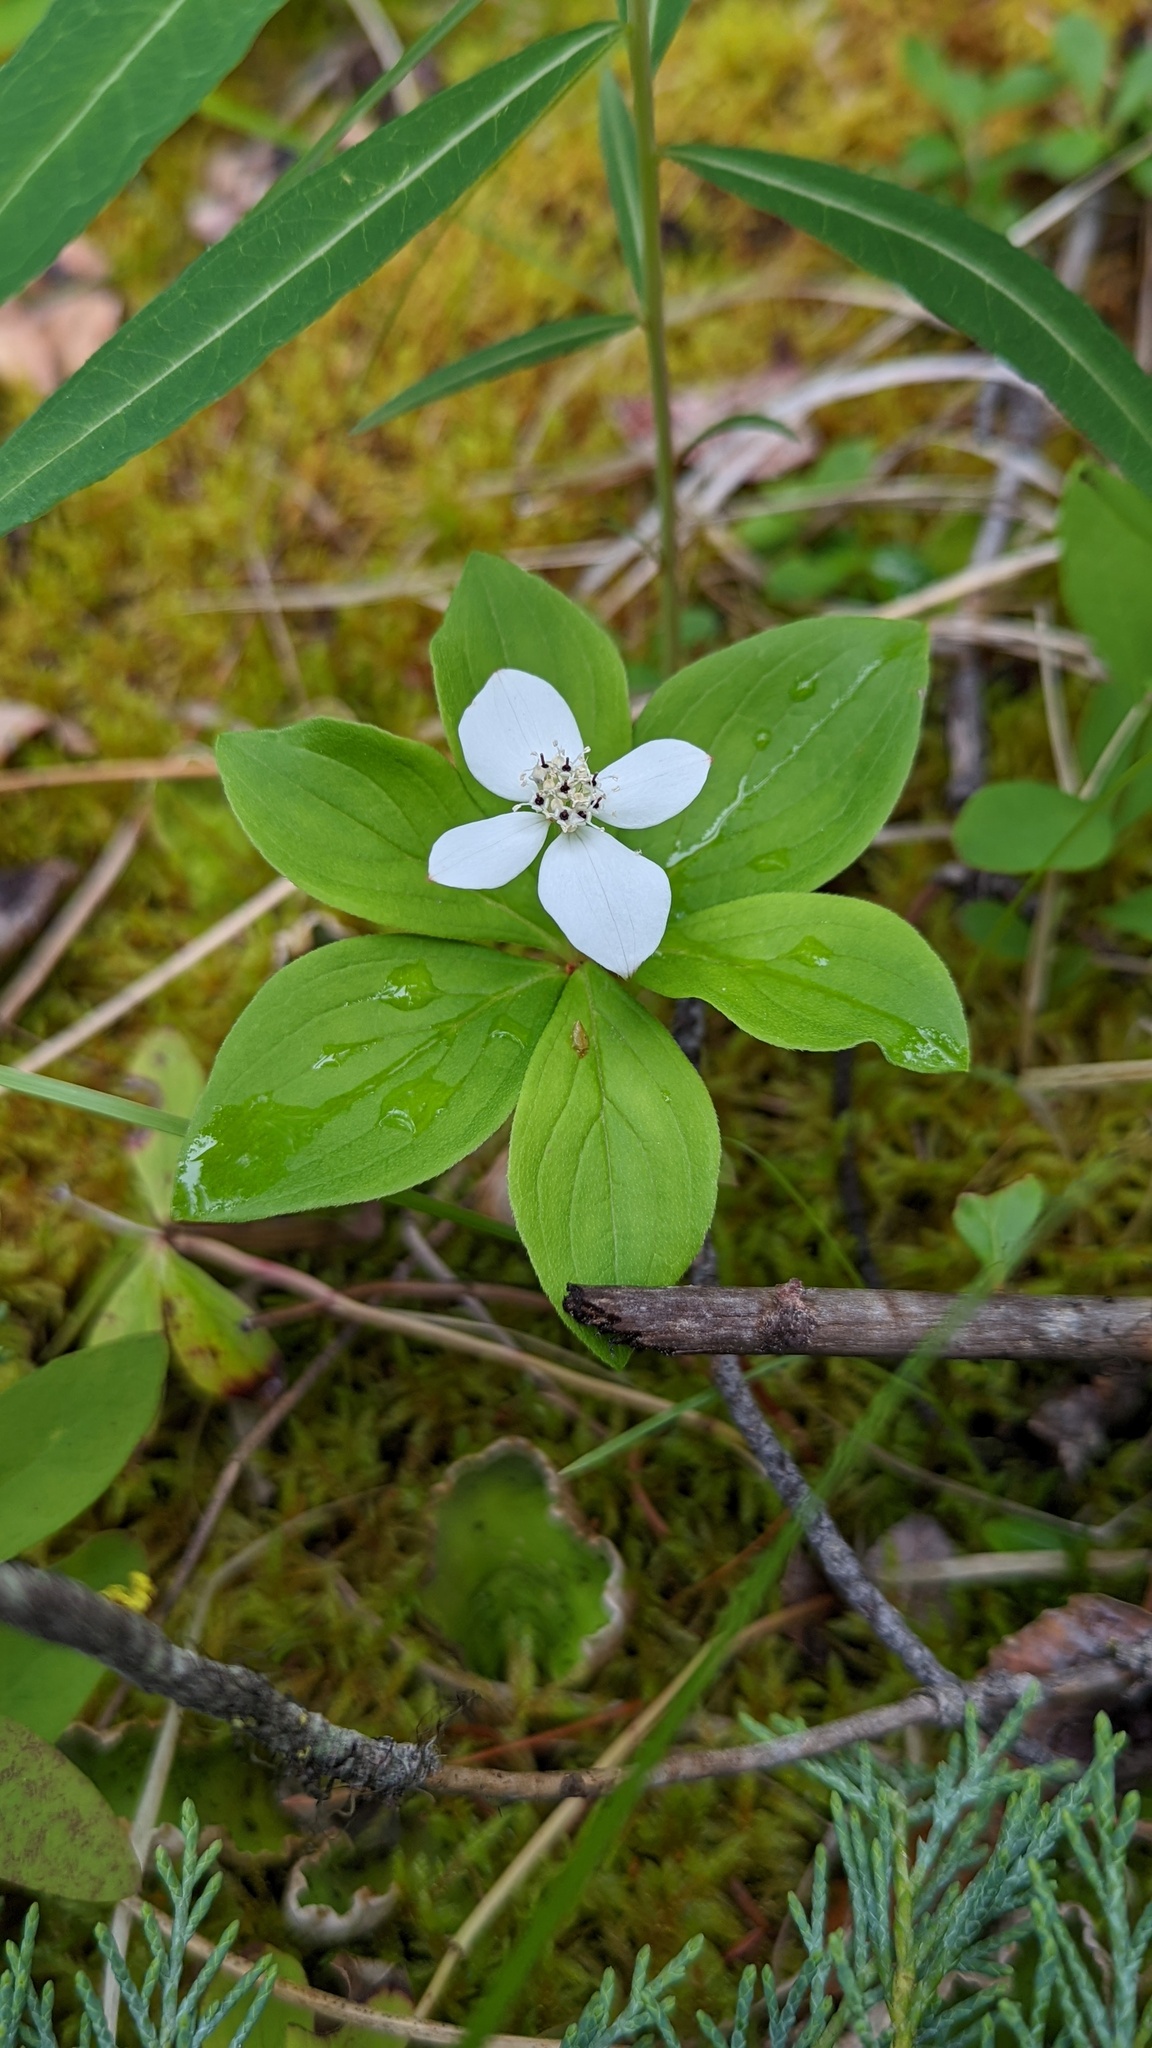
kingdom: Plantae
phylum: Tracheophyta
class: Magnoliopsida
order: Cornales
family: Cornaceae
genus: Cornus
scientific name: Cornus canadensis
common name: Creeping dogwood
